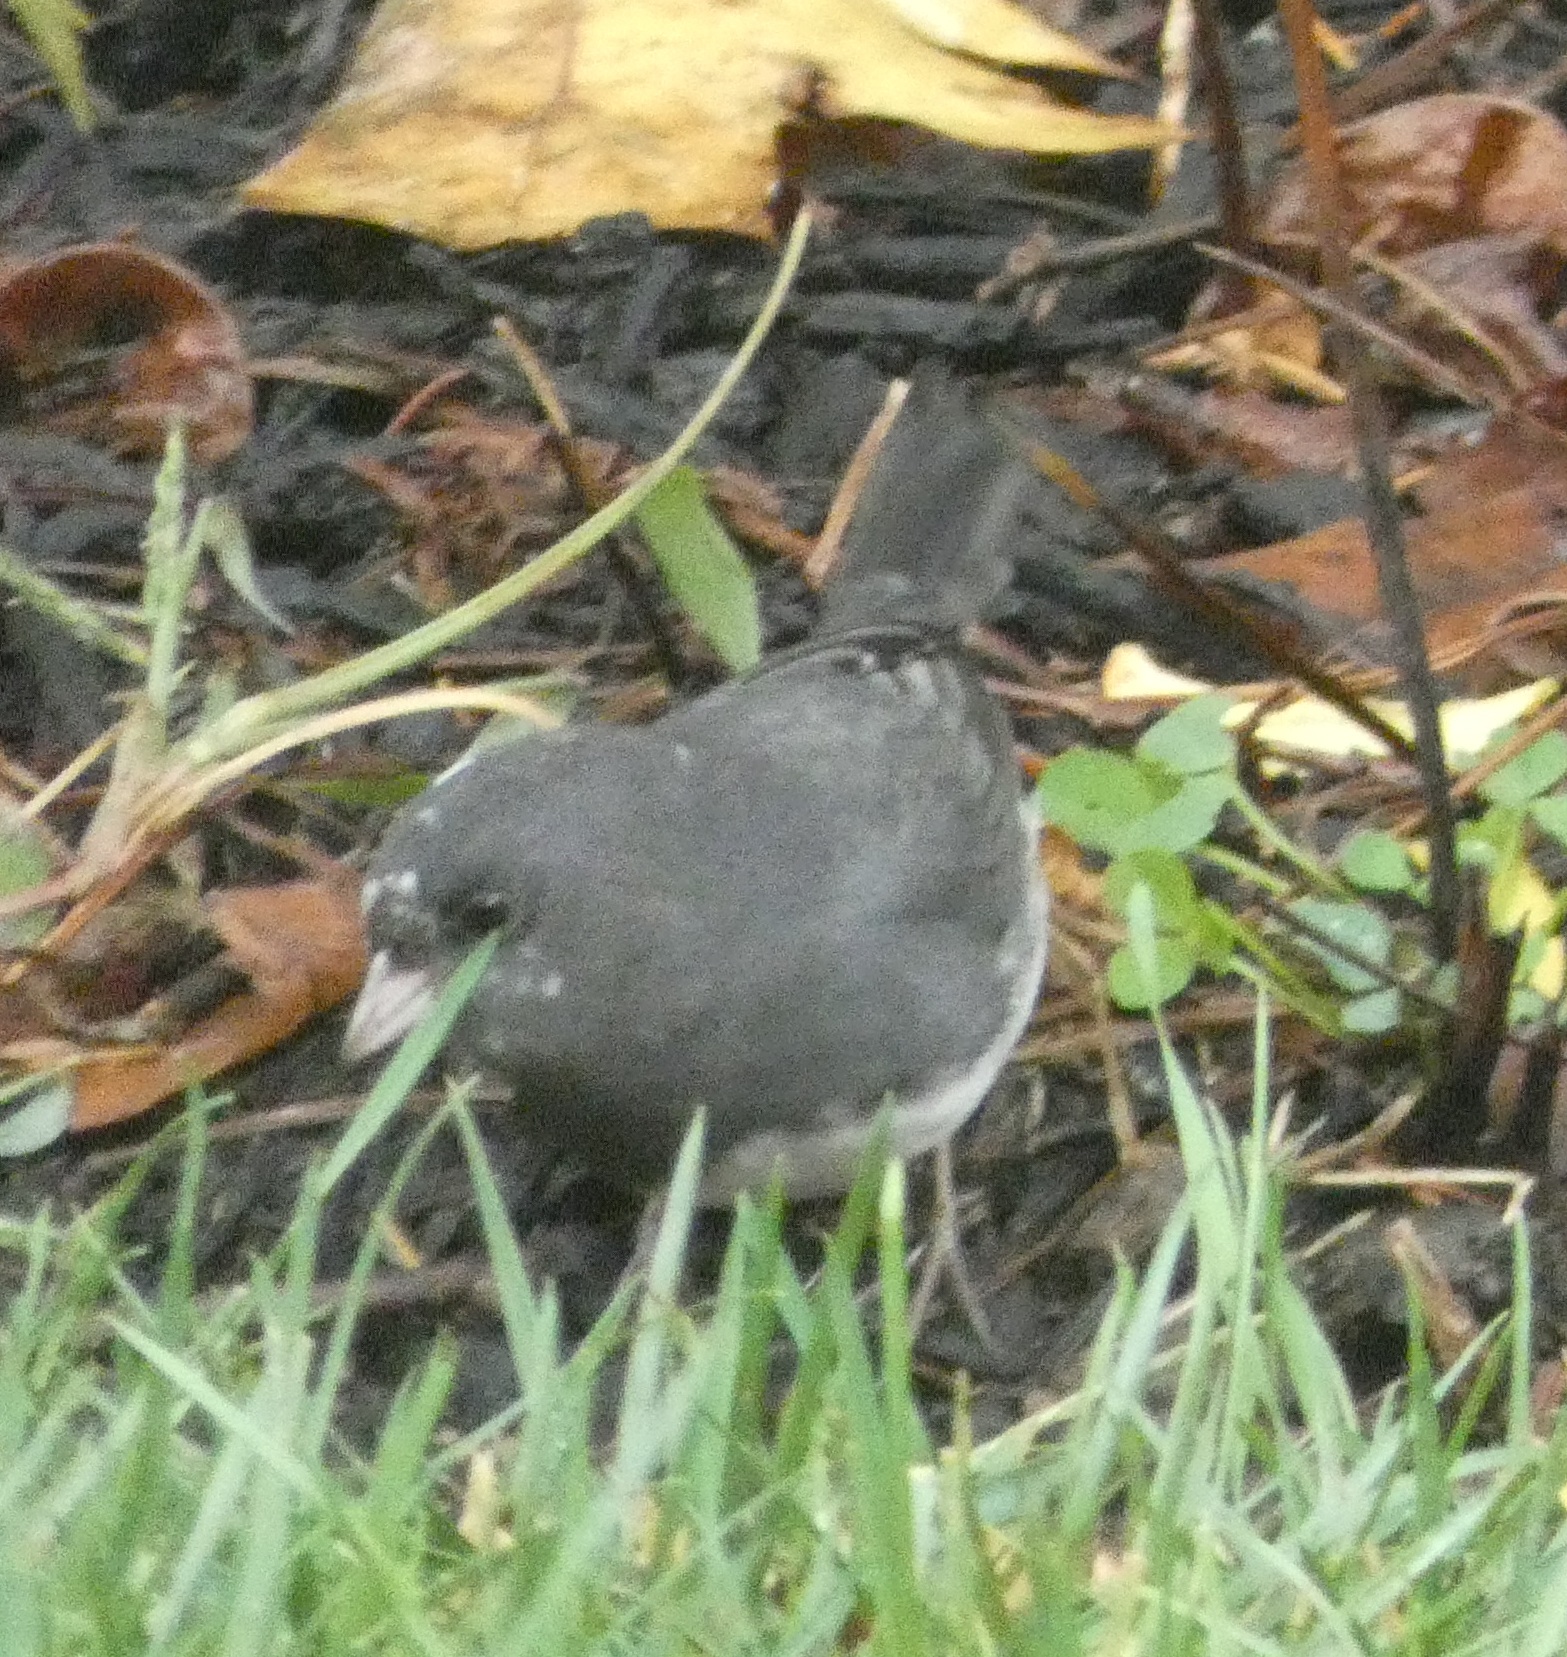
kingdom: Animalia
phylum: Chordata
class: Aves
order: Passeriformes
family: Passerellidae
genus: Junco
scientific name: Junco hyemalis
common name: Dark-eyed junco
